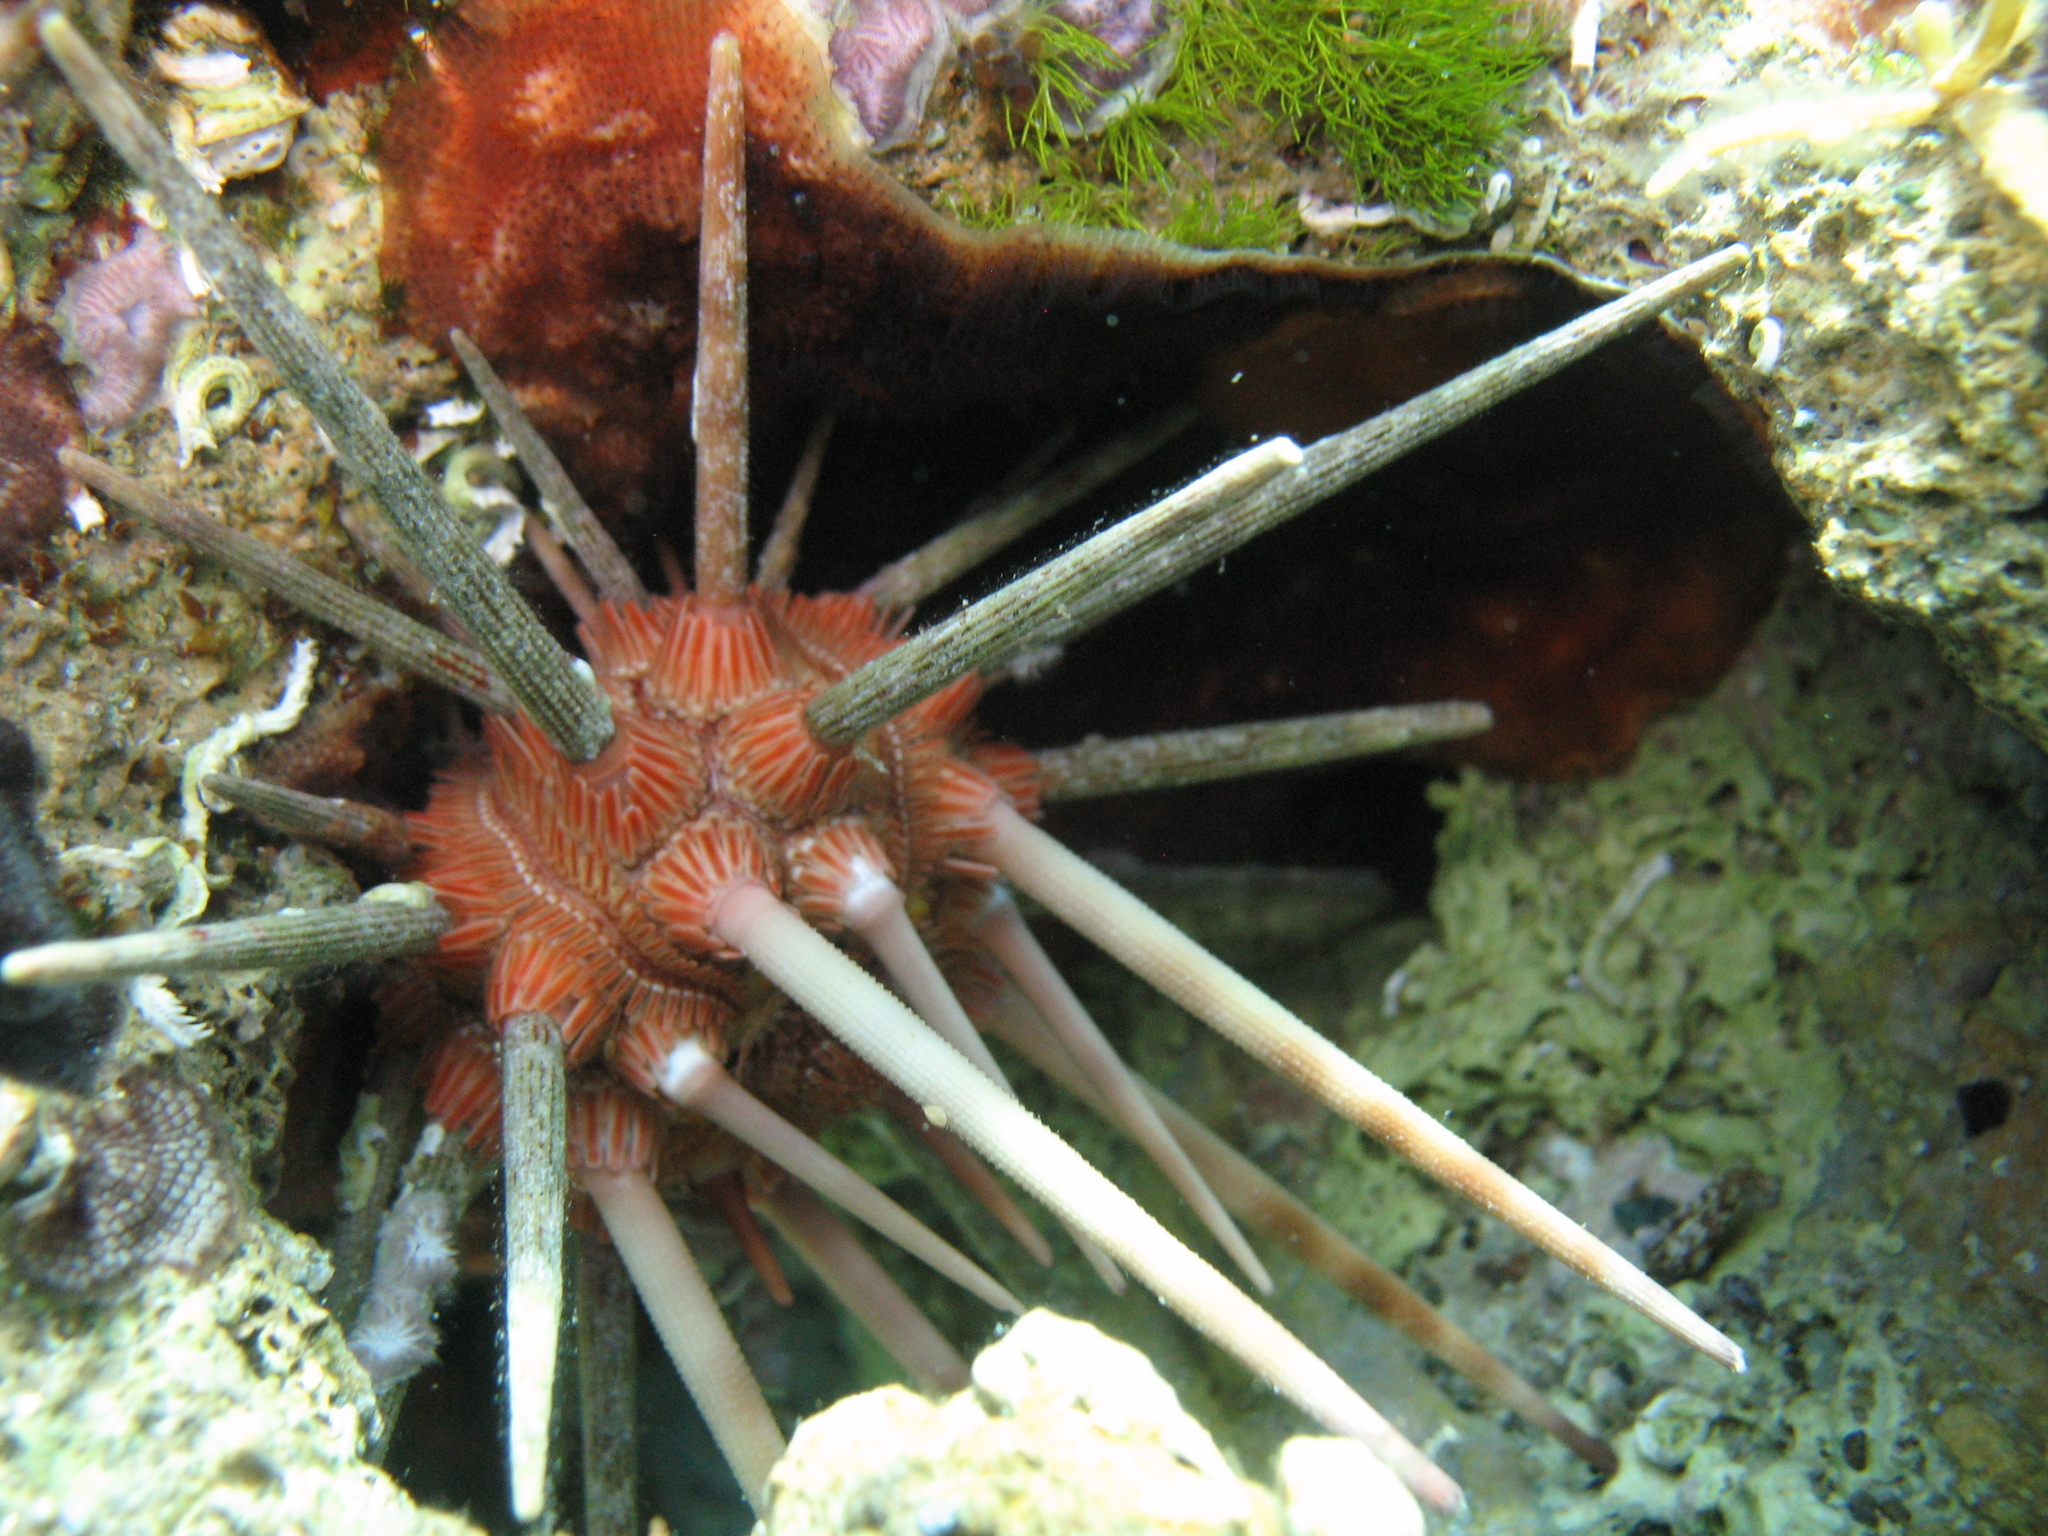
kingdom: Animalia
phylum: Echinodermata
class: Echinoidea
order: Cidaroida
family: Cidaridae
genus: Stylocidaris
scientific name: Stylocidaris affinis
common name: Red lance urchin
